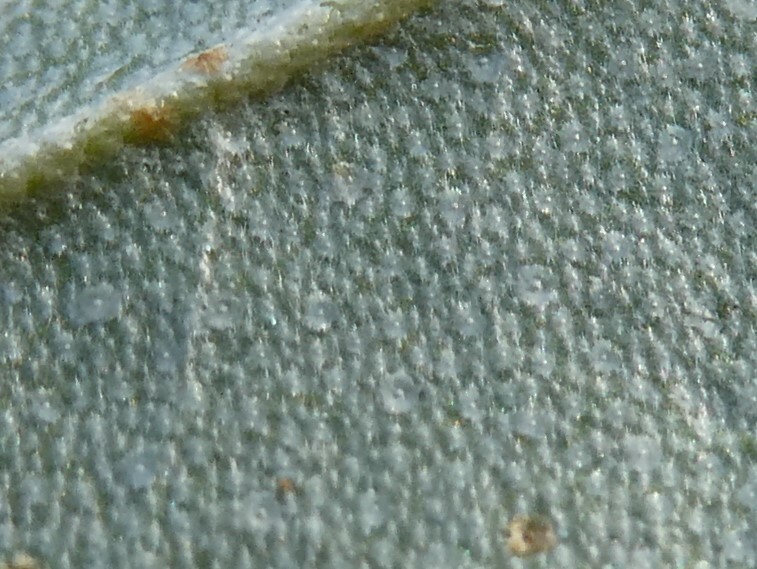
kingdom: Plantae
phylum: Tracheophyta
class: Magnoliopsida
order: Rosales
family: Elaeagnaceae
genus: Elaeagnus
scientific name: Elaeagnus umbellata
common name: Autumn olive
